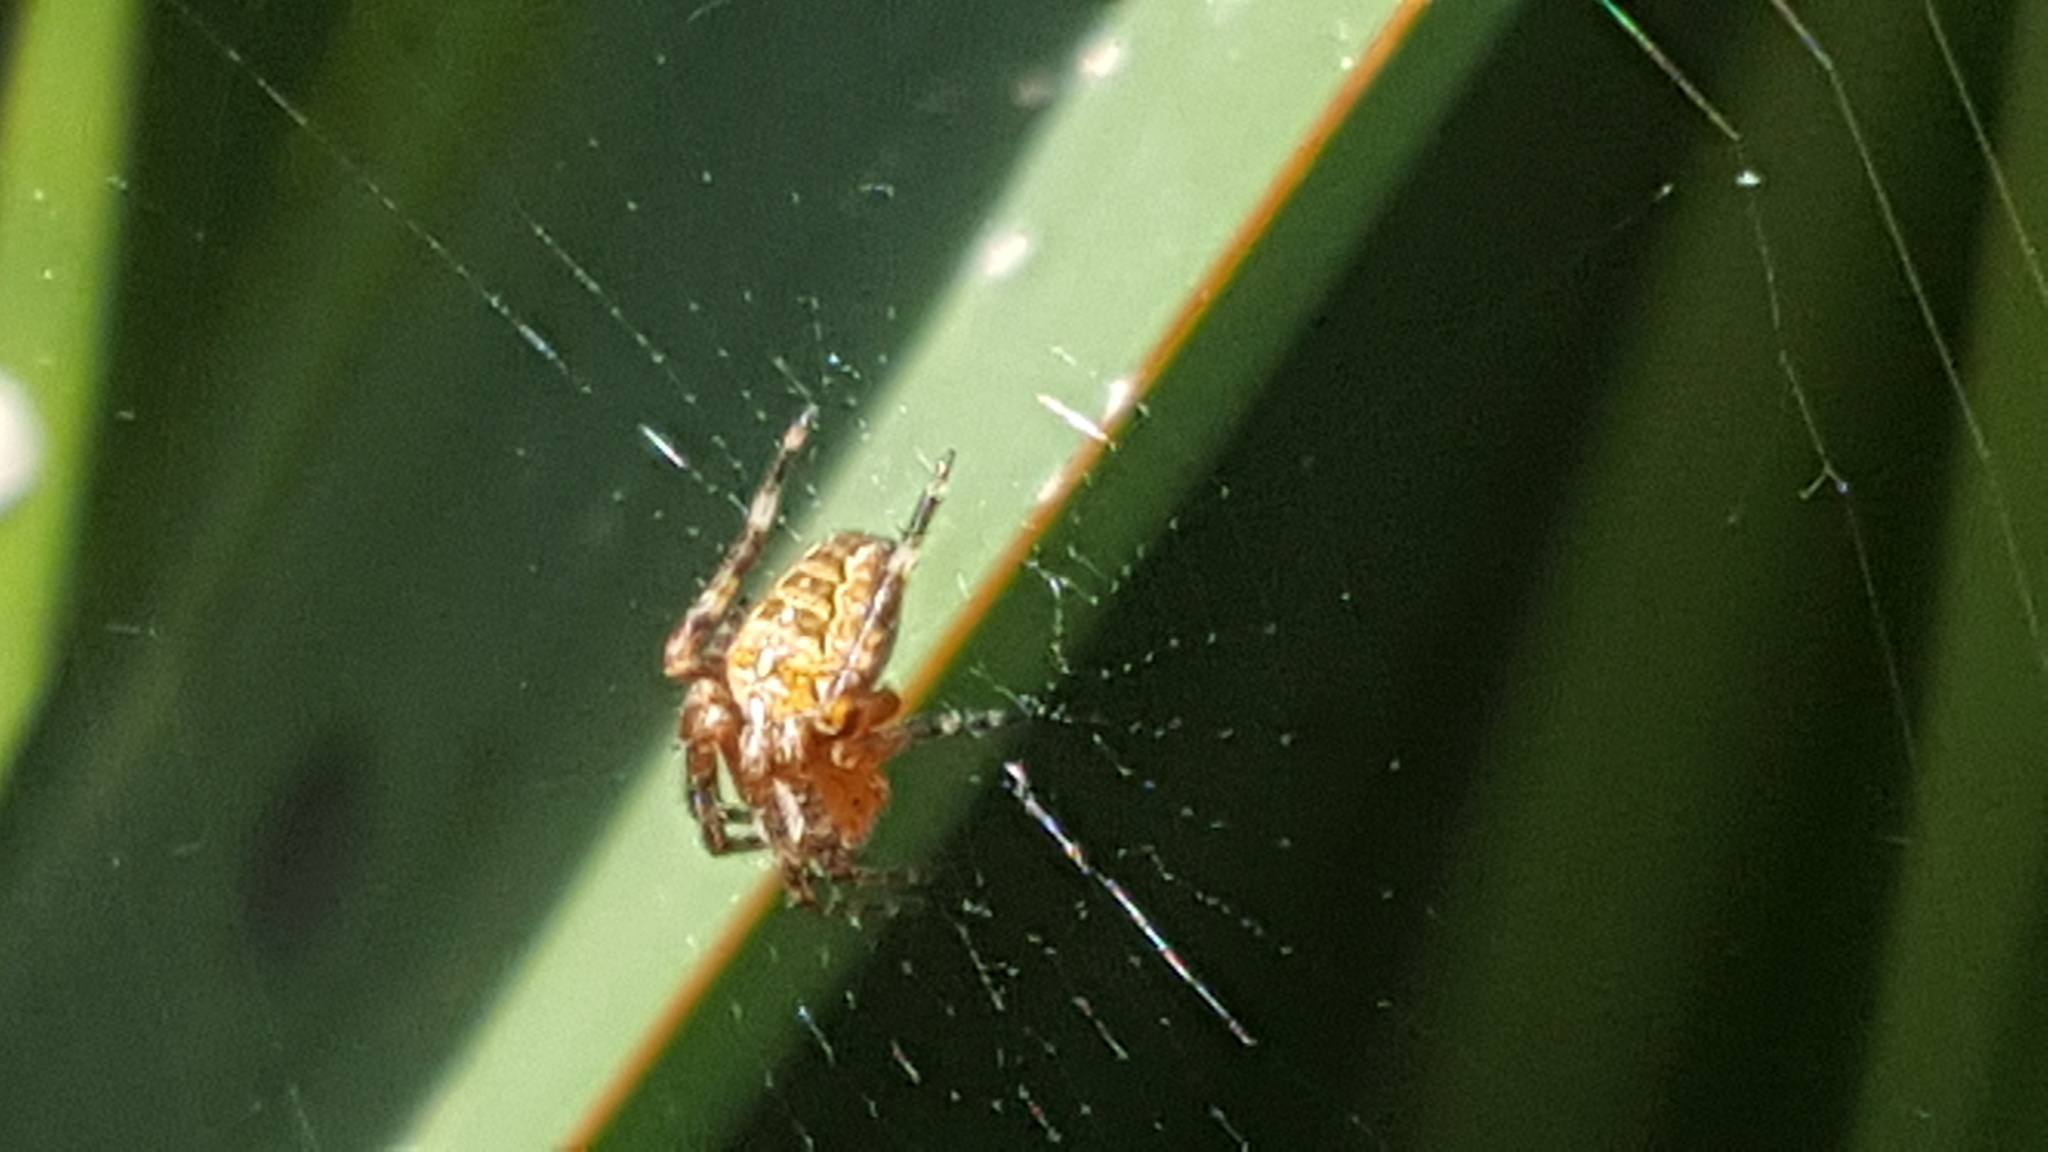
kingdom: Animalia
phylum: Arthropoda
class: Arachnida
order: Araneae
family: Araneidae
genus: Araneus
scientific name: Araneus diadematus
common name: Cross orbweaver
